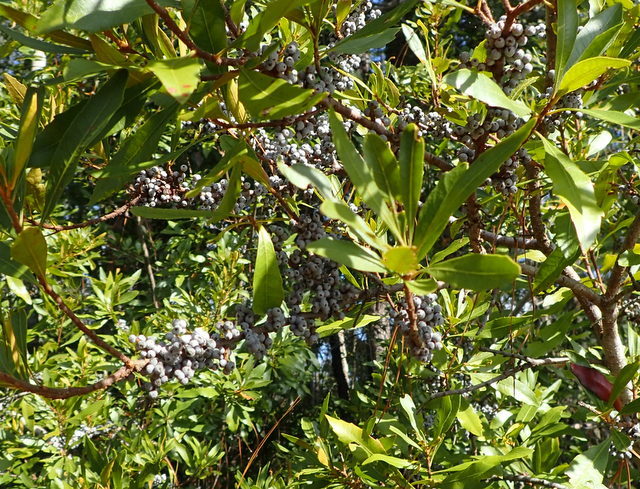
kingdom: Plantae
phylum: Tracheophyta
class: Magnoliopsida
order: Fagales
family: Myricaceae
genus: Morella
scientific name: Morella cerifera
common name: Wax myrtle
